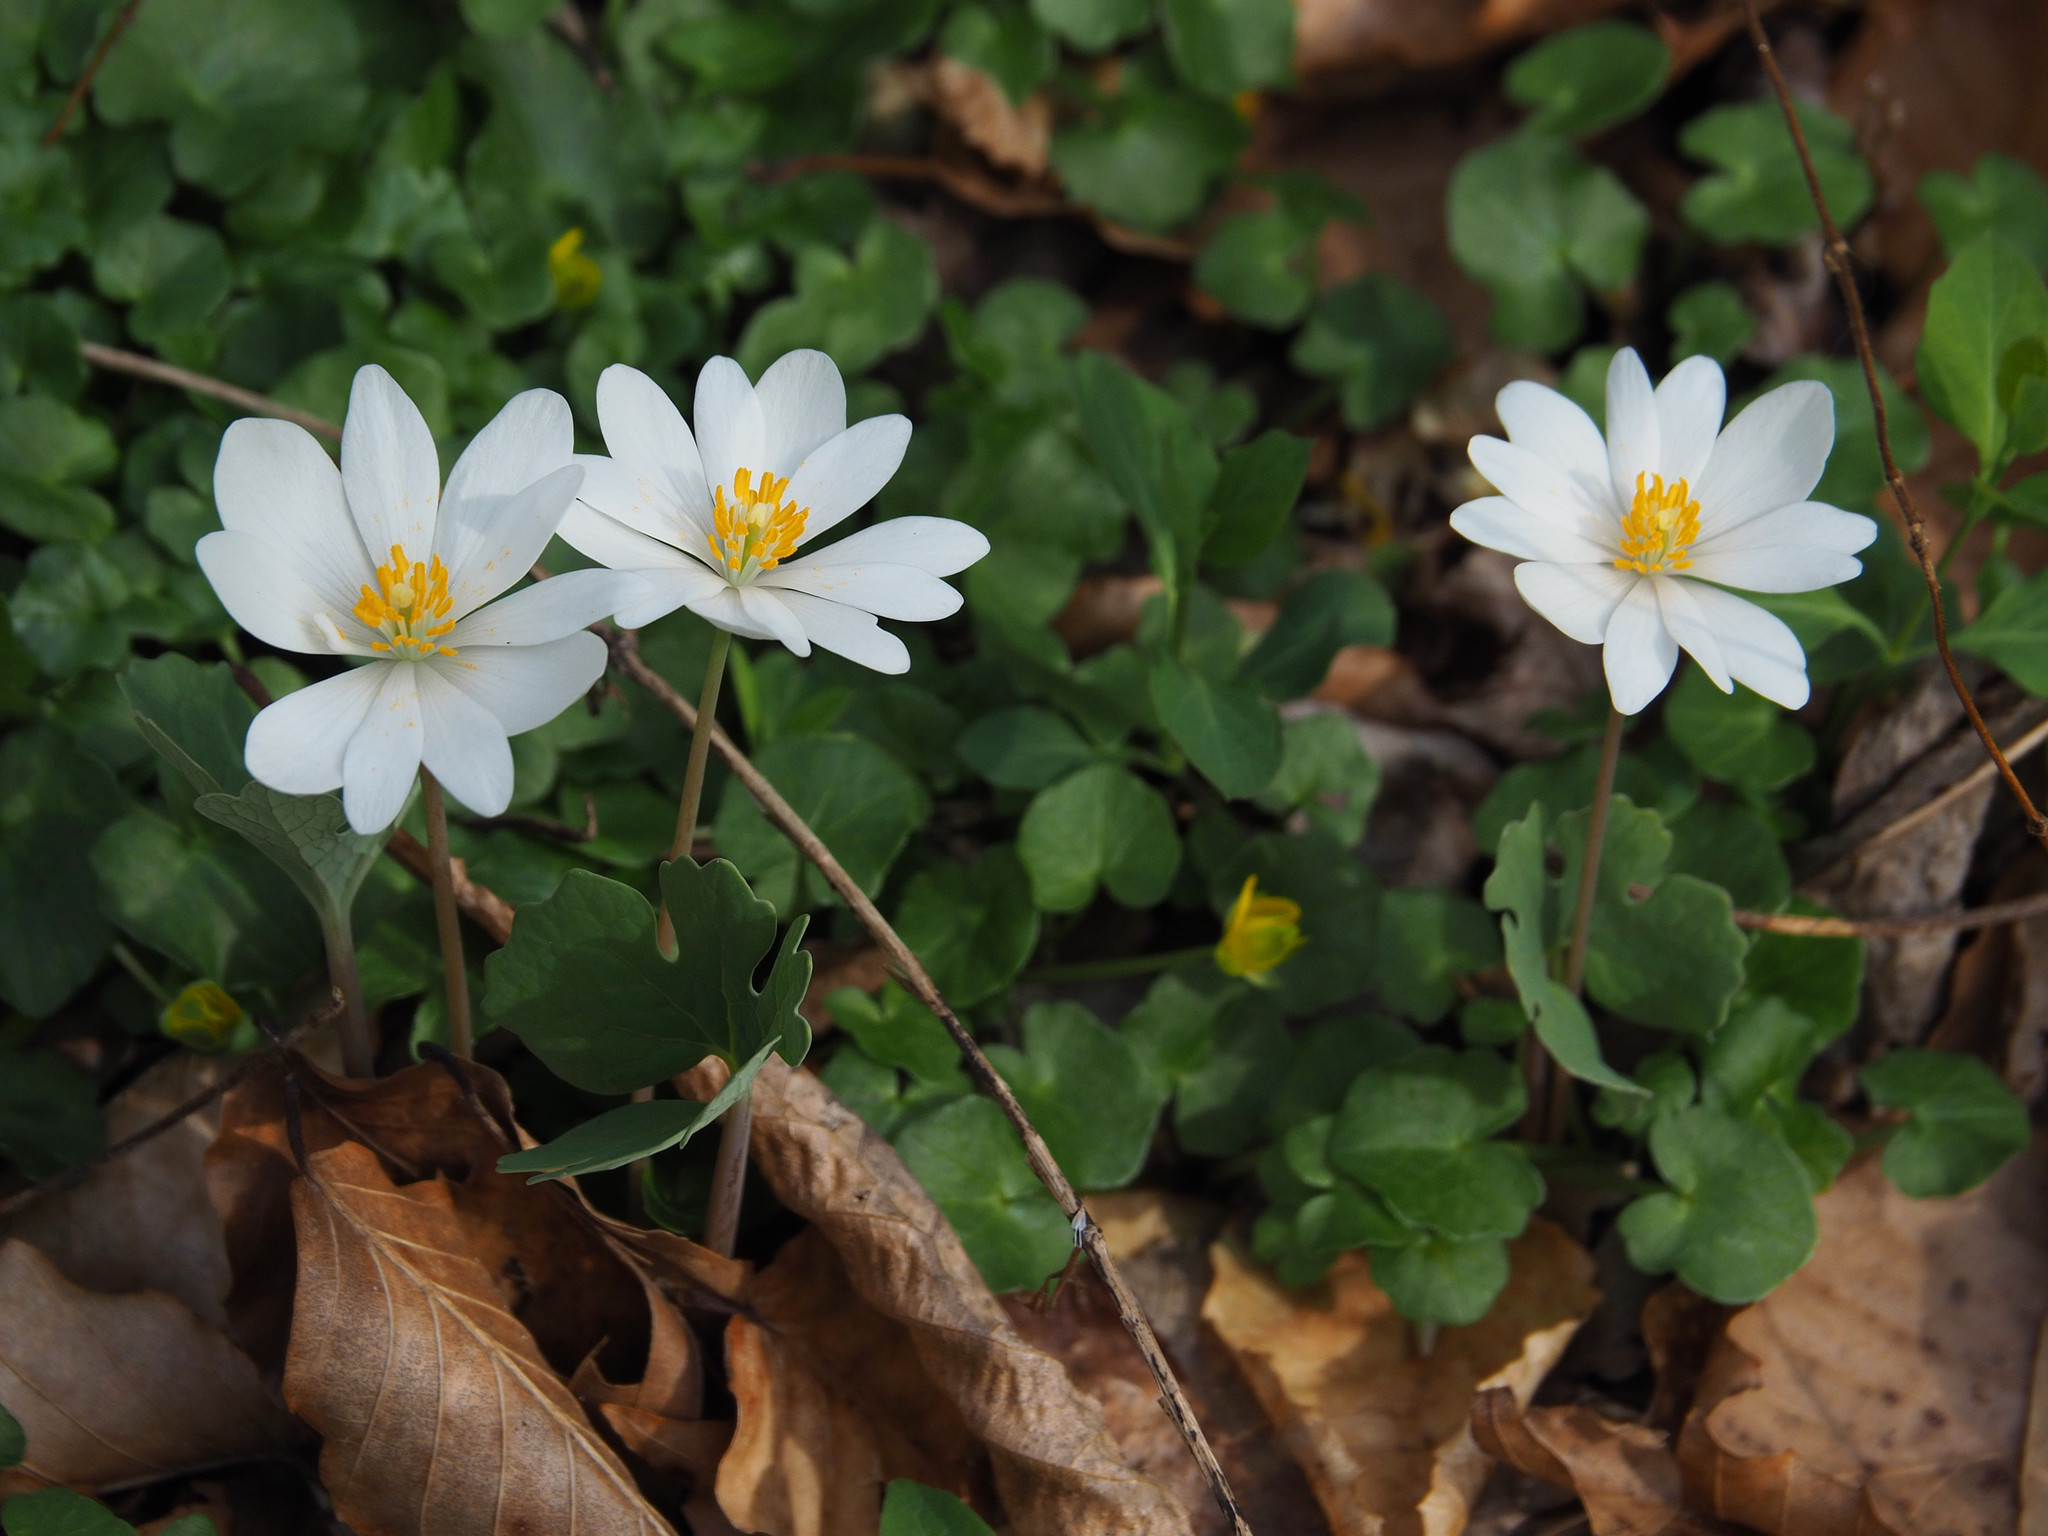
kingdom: Plantae
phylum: Tracheophyta
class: Magnoliopsida
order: Ranunculales
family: Papaveraceae
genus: Sanguinaria
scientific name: Sanguinaria canadensis
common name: Bloodroot
